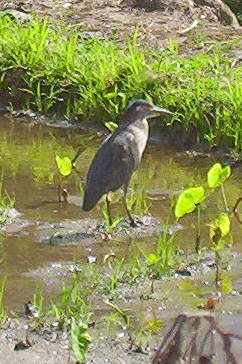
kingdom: Animalia
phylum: Chordata
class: Aves
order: Pelecaniformes
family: Ardeidae
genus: Nycticorax
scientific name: Nycticorax nycticorax
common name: Black-crowned night heron
